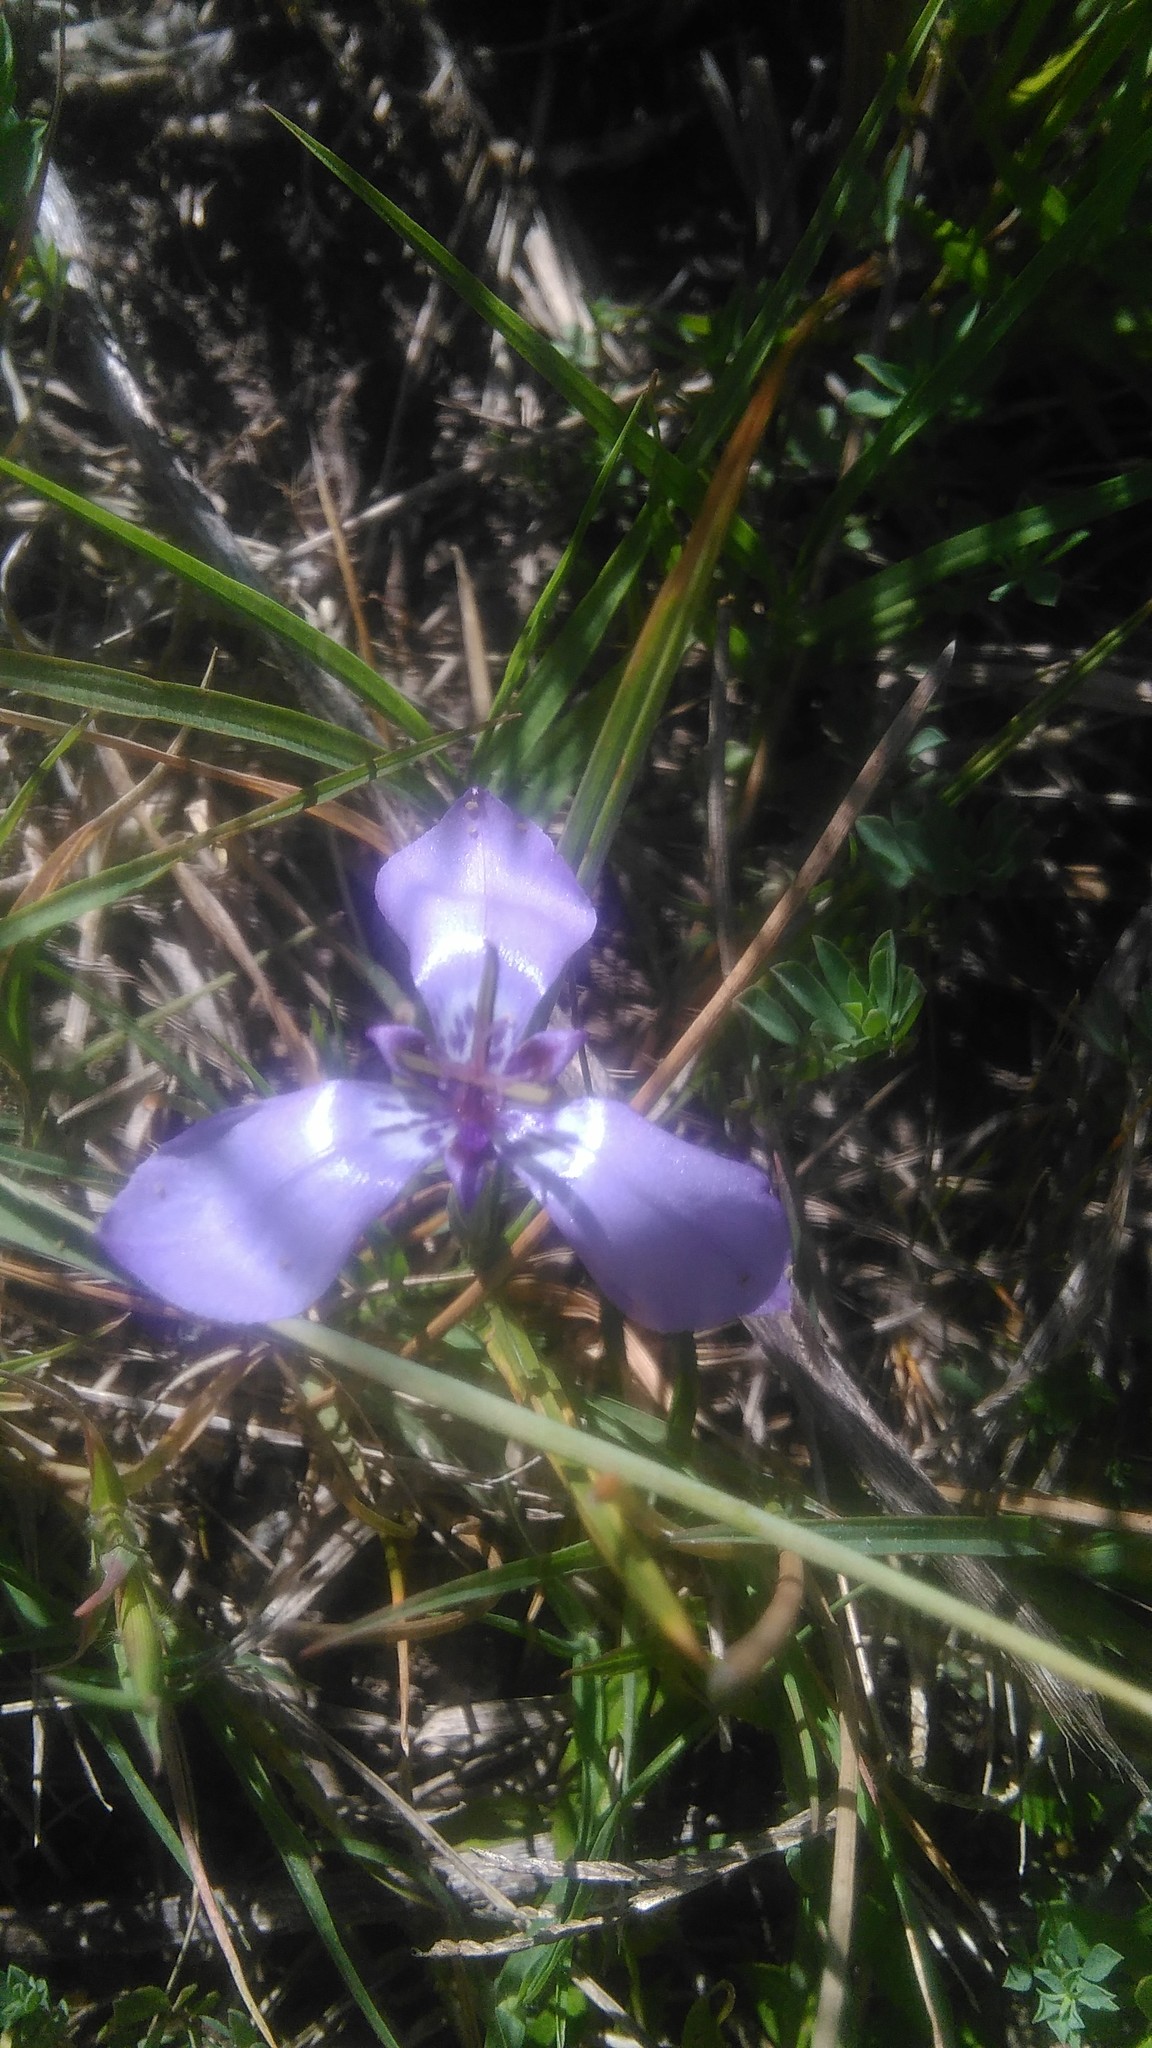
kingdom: Plantae
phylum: Tracheophyta
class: Liliopsida
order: Asparagales
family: Iridaceae
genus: Herbertia
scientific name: Herbertia lahue
